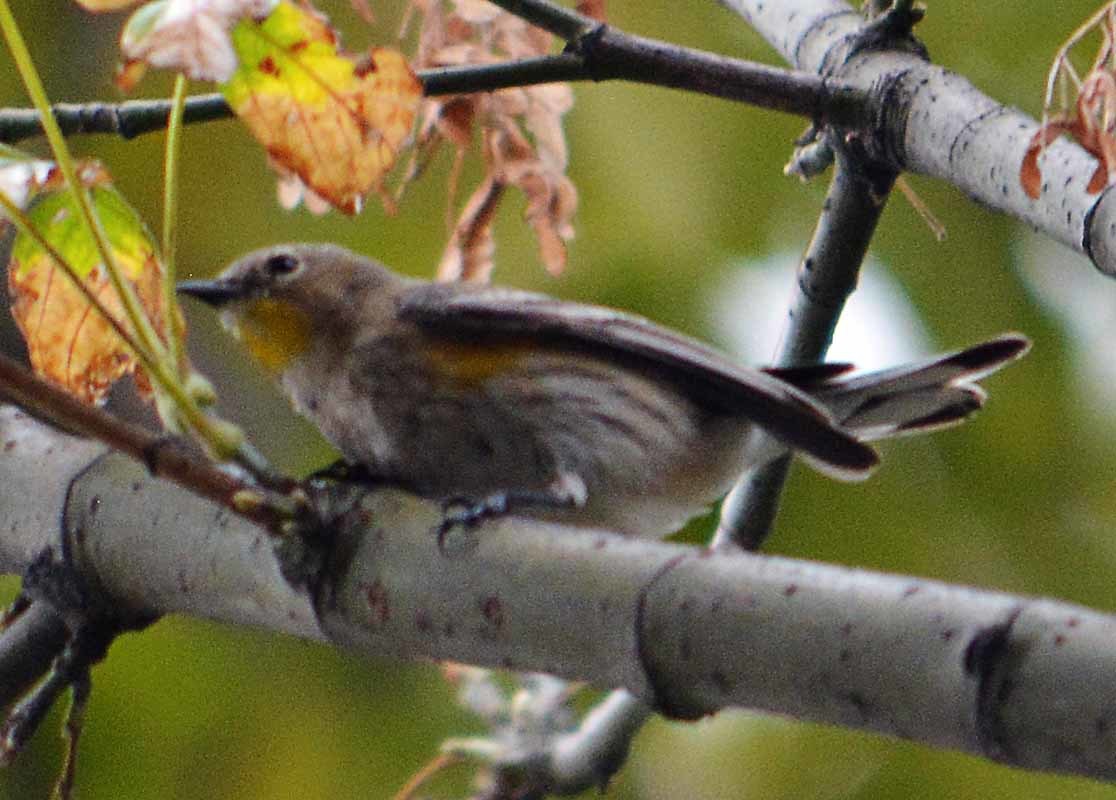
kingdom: Animalia
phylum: Chordata
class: Aves
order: Passeriformes
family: Parulidae
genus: Setophaga
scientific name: Setophaga coronata
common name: Myrtle warbler
